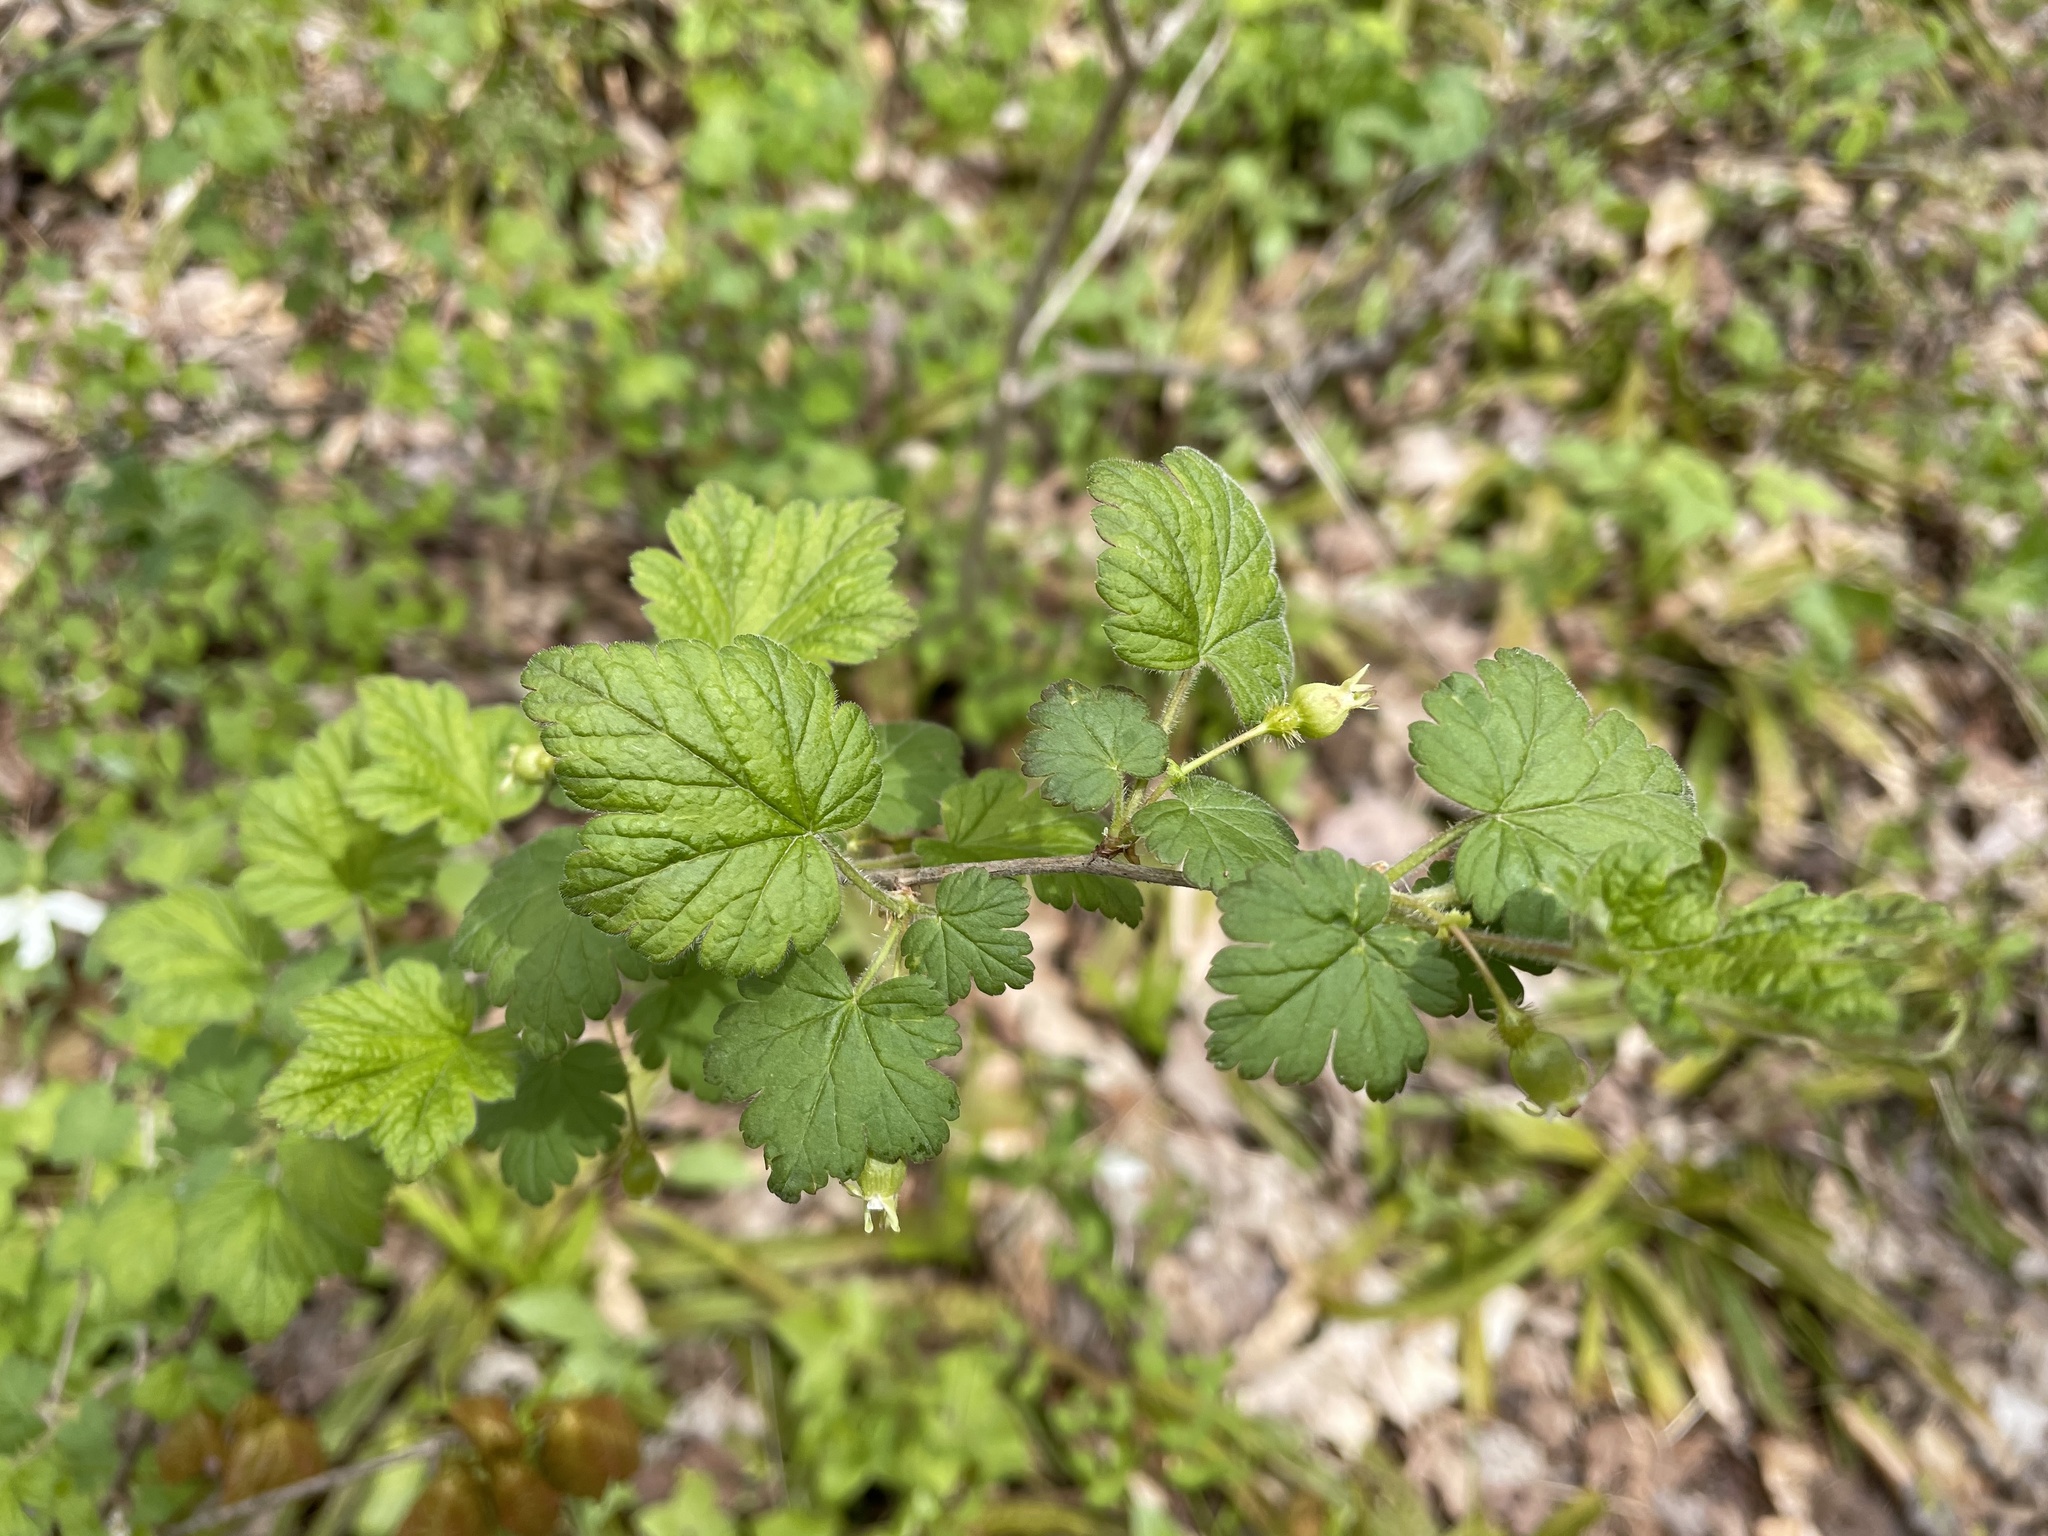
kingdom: Plantae
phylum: Tracheophyta
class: Magnoliopsida
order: Saxifragales
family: Grossulariaceae
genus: Ribes
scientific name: Ribes cynosbati
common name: American gooseberry
